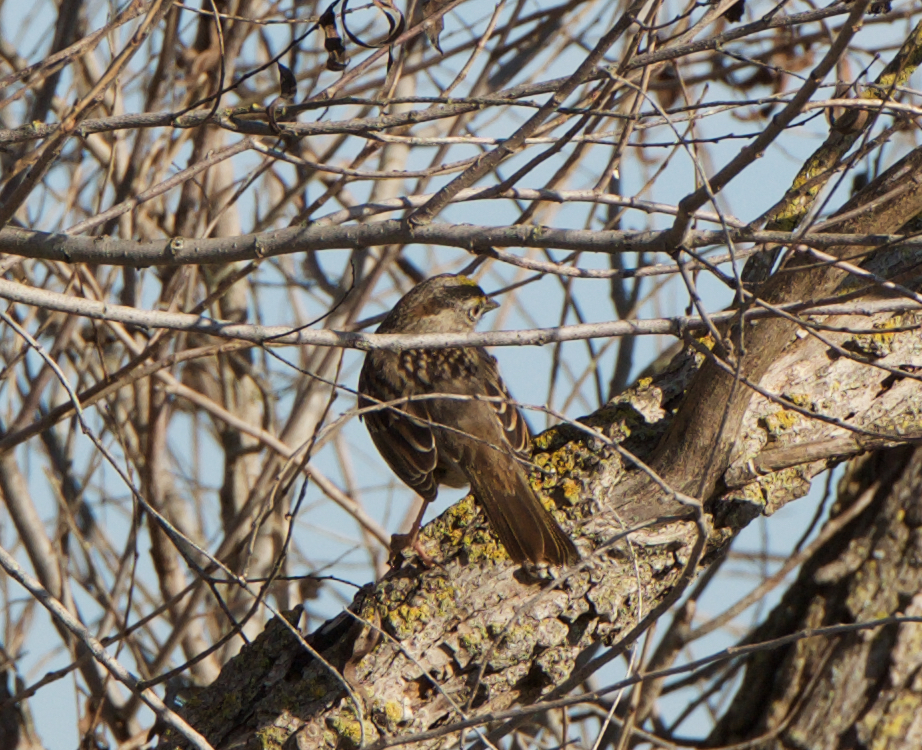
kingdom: Animalia
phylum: Chordata
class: Aves
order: Passeriformes
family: Passerellidae
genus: Zonotrichia
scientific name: Zonotrichia atricapilla
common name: Golden-crowned sparrow
